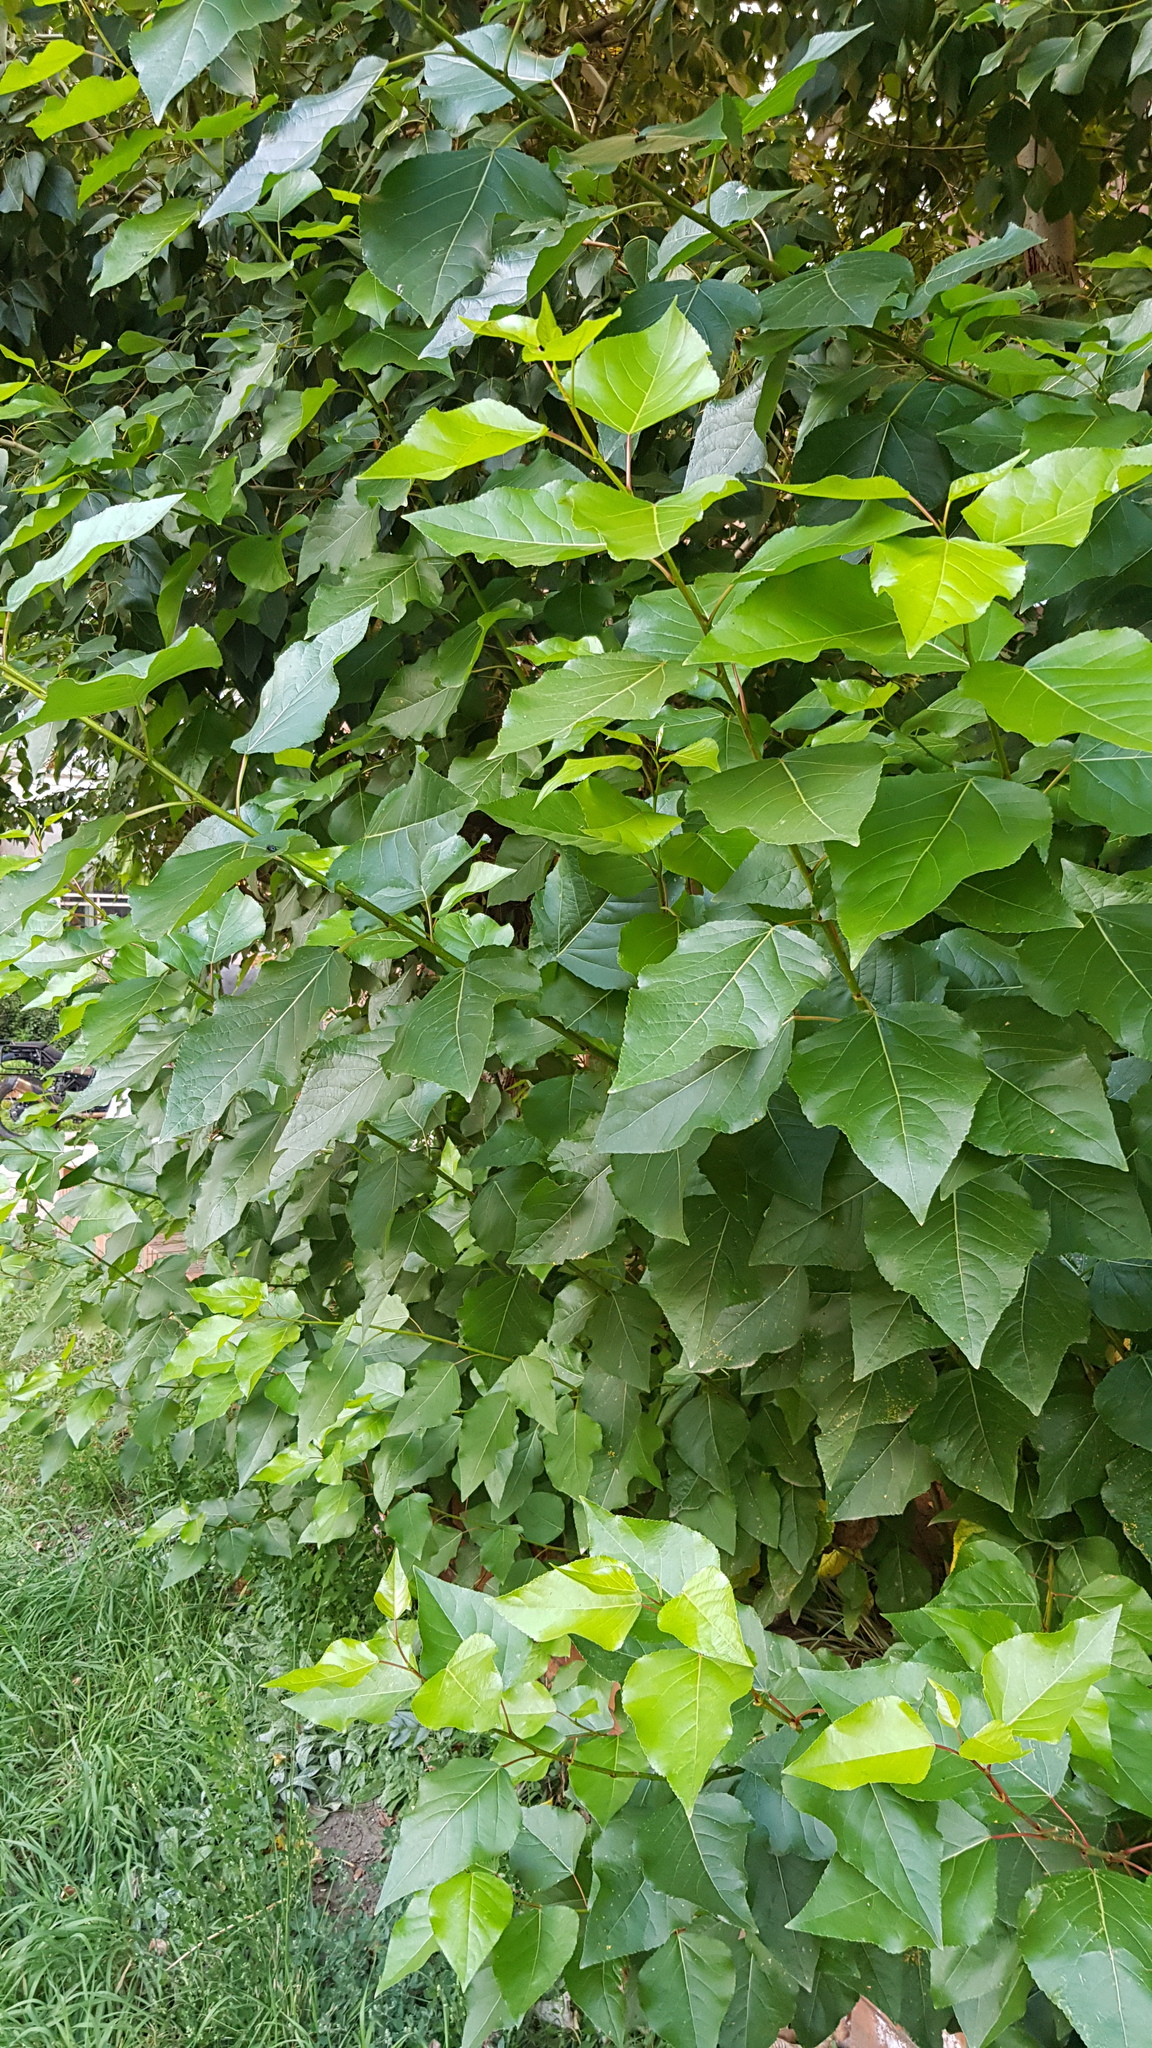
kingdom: Plantae
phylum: Tracheophyta
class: Magnoliopsida
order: Malpighiales
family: Salicaceae
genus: Populus
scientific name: Populus laurifolia
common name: Laurel-leaf poplar
